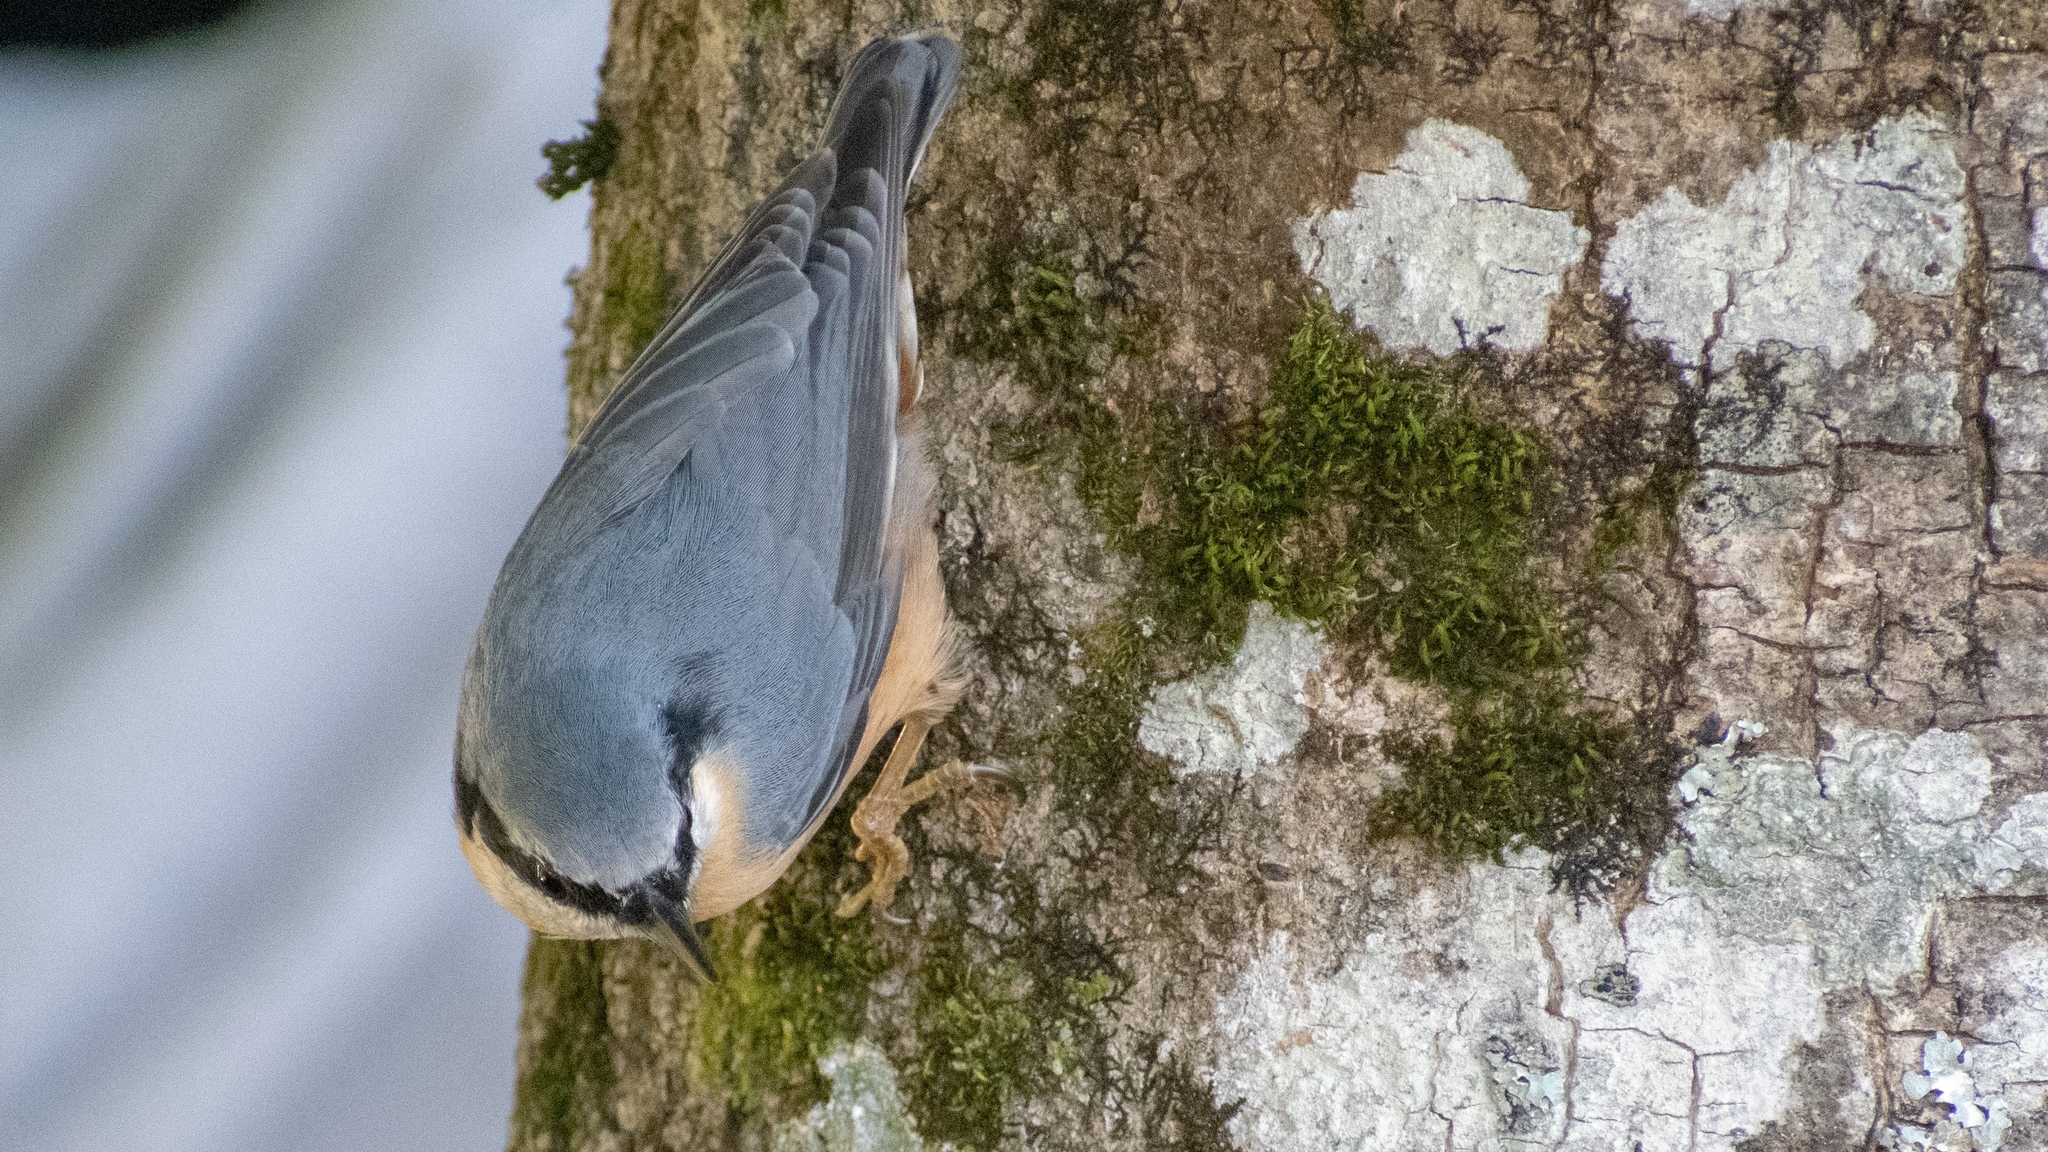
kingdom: Animalia
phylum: Chordata
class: Aves
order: Passeriformes
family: Sittidae
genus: Sitta
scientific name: Sitta europaea
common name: Eurasian nuthatch
